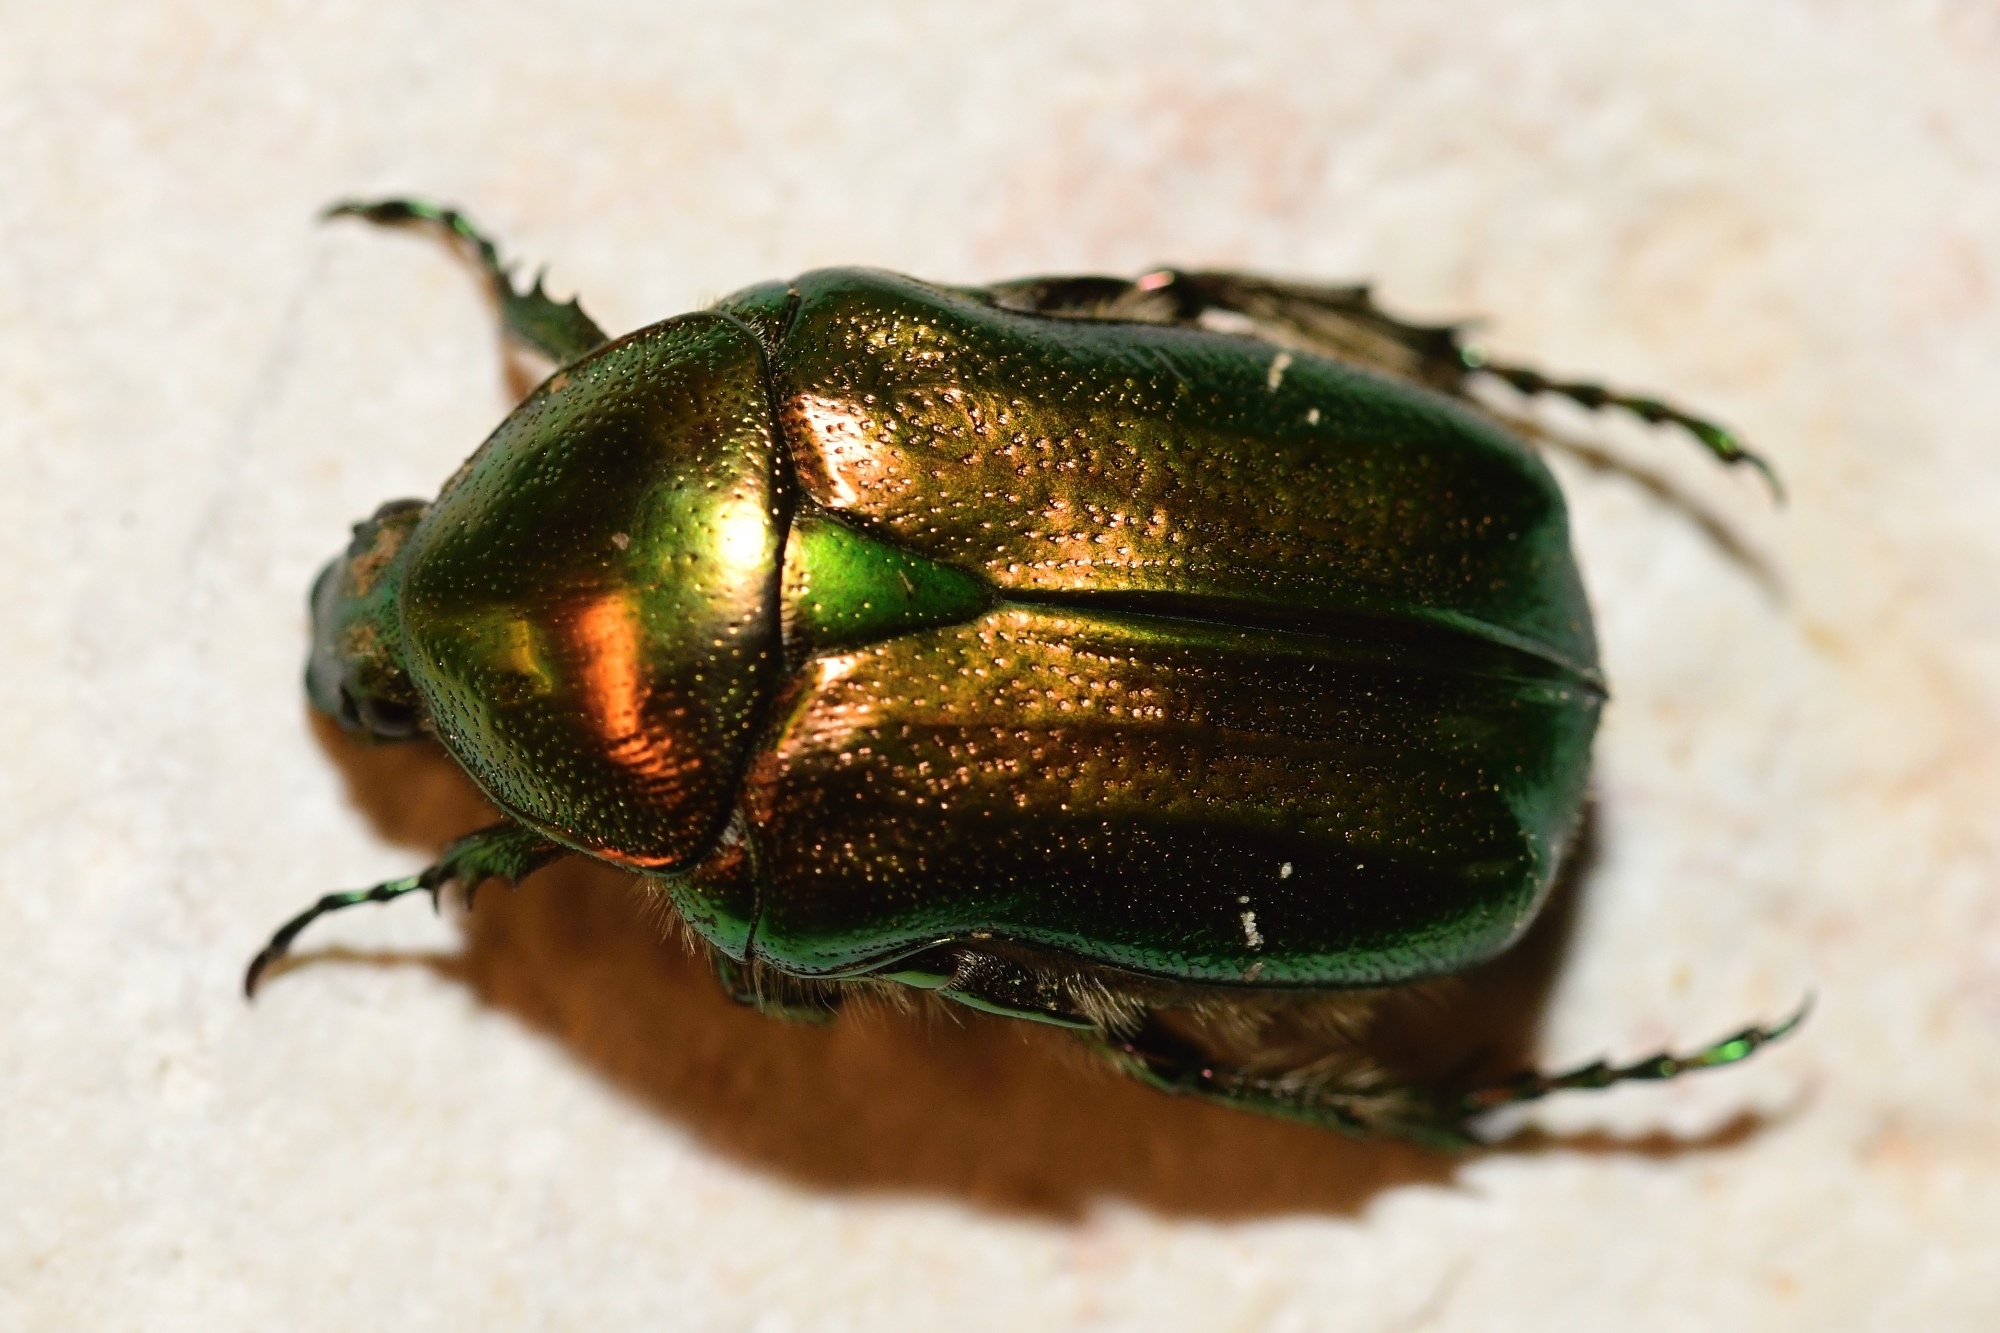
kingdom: Animalia
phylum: Arthropoda
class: Insecta
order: Coleoptera
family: Scarabaeidae
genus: Cetonia
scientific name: Cetonia aurata
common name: Rose chafer
